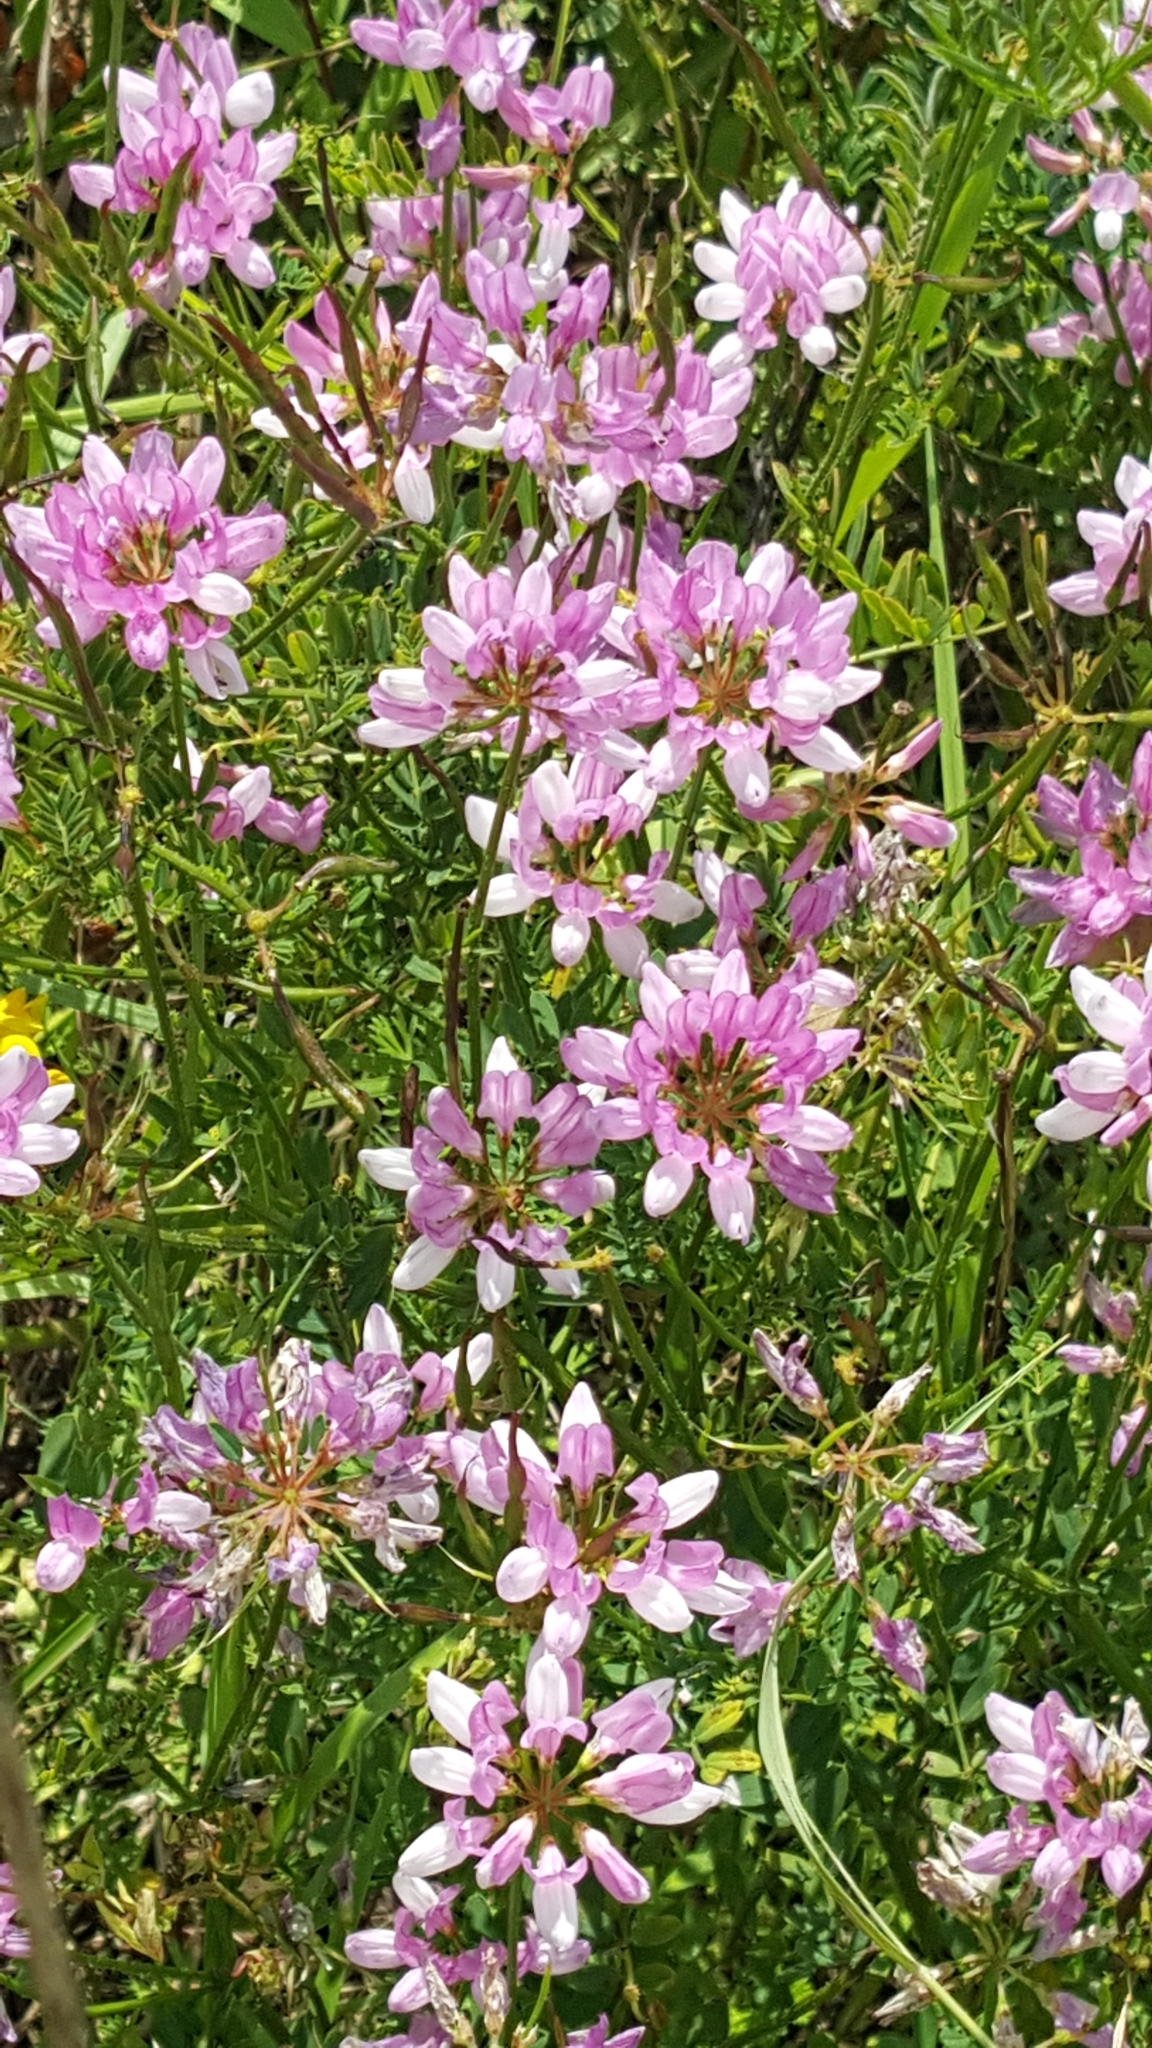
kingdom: Plantae
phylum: Tracheophyta
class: Magnoliopsida
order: Fabales
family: Fabaceae
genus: Coronilla
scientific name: Coronilla varia
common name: Crownvetch
